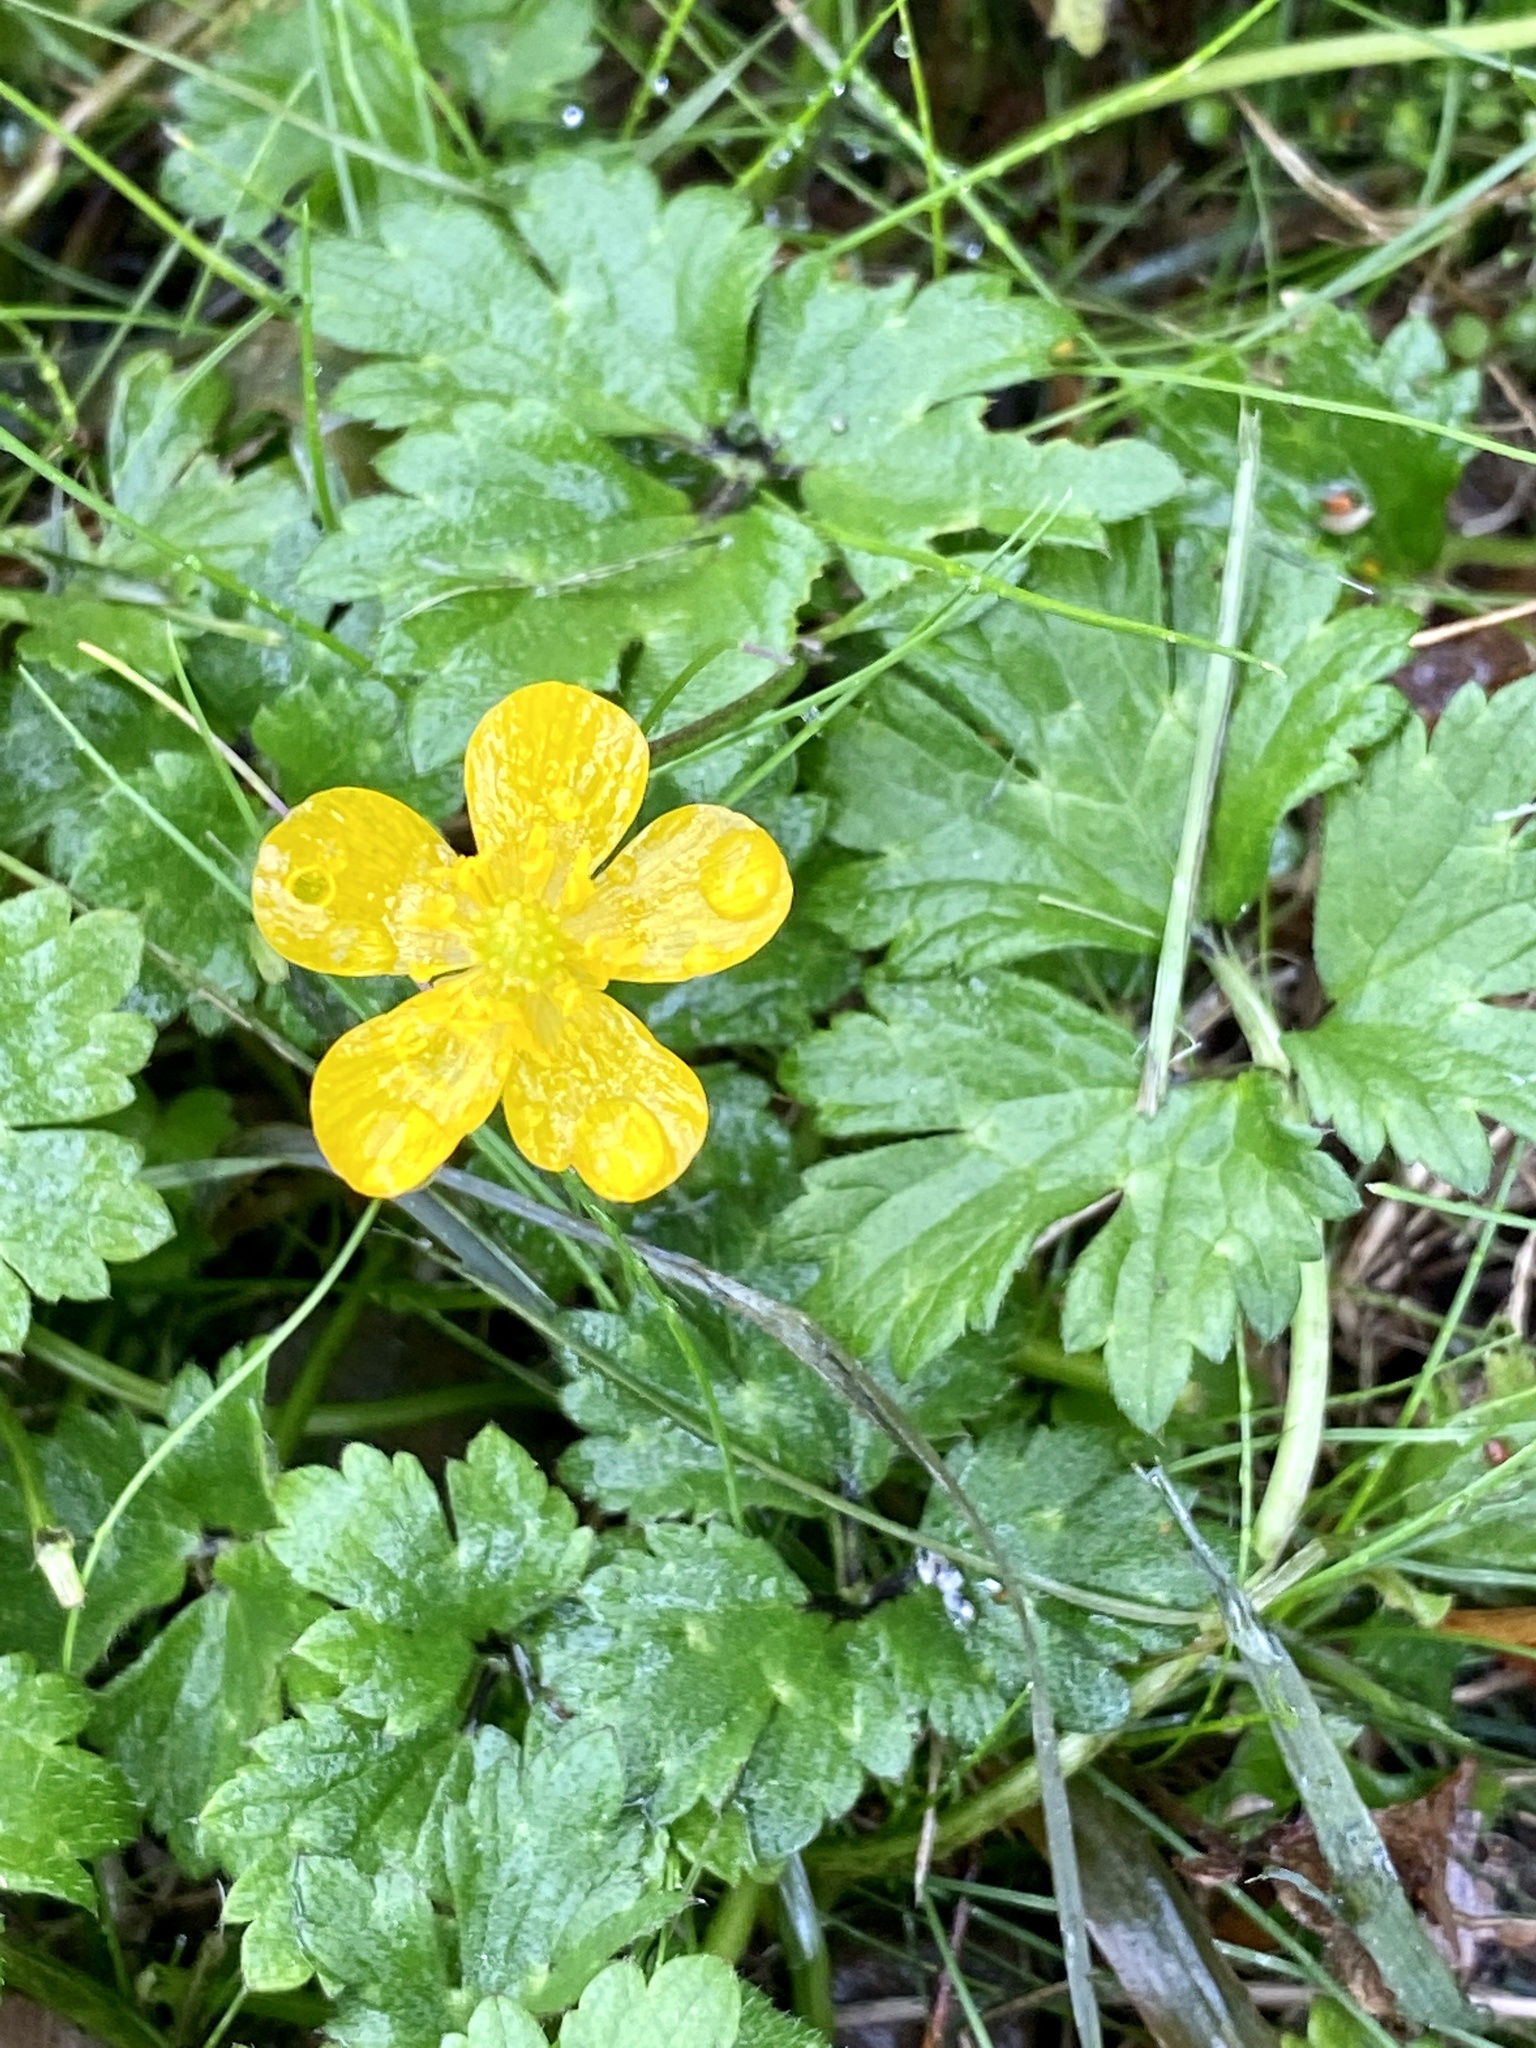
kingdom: Plantae
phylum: Tracheophyta
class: Magnoliopsida
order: Ranunculales
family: Ranunculaceae
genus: Ranunculus
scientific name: Ranunculus repens
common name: Creeping buttercup
